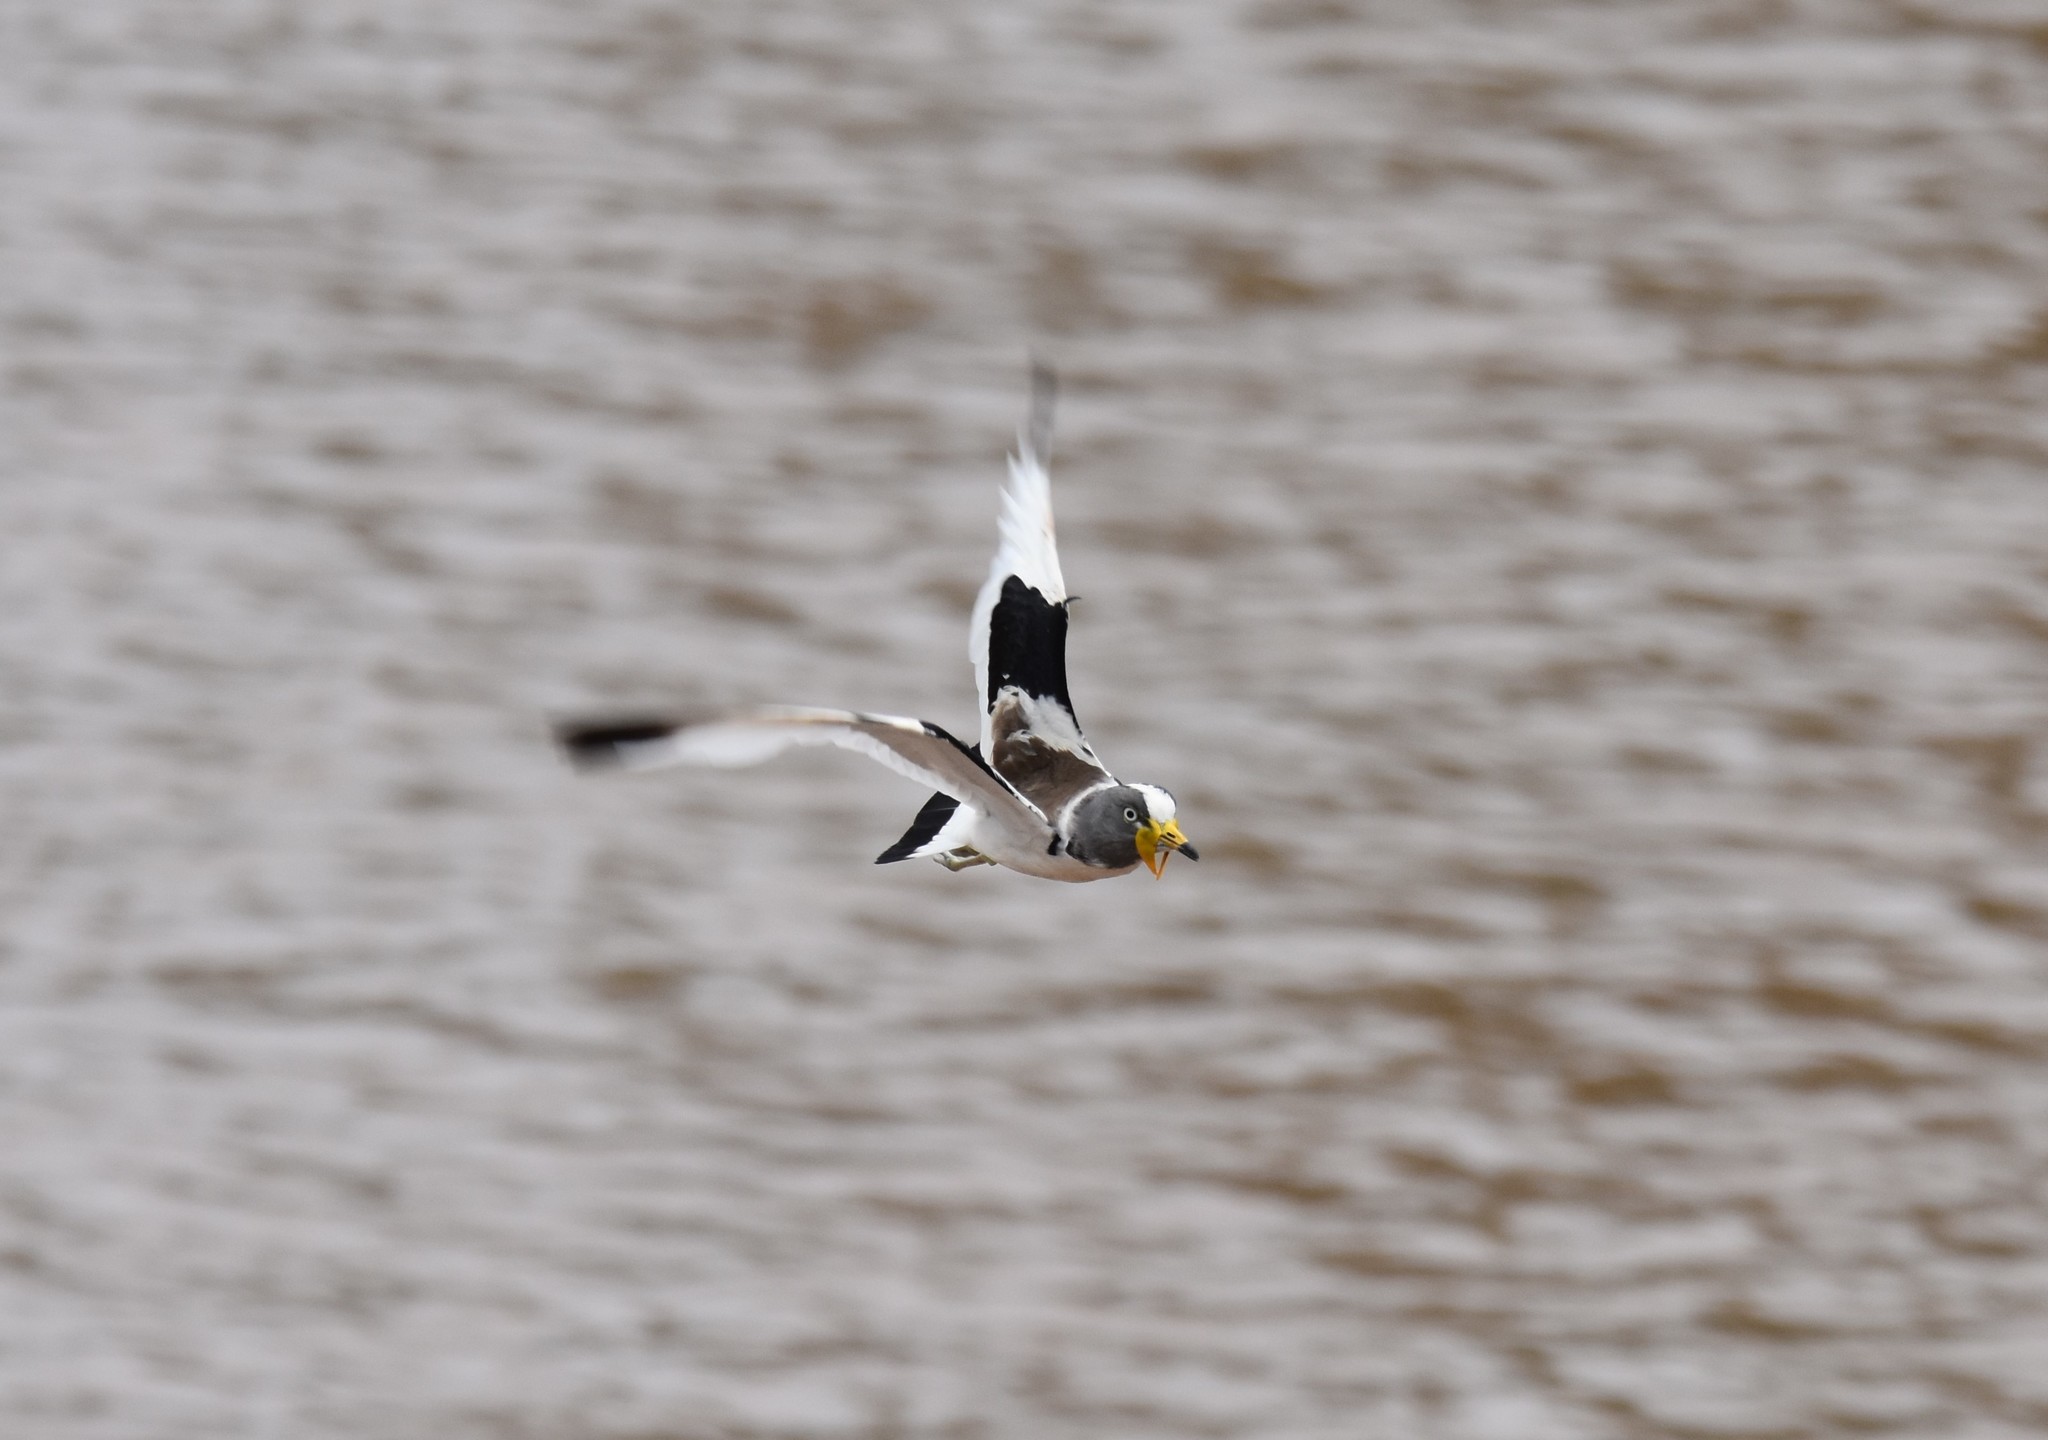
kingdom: Animalia
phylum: Chordata
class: Aves
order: Charadriiformes
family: Charadriidae
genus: Vanellus
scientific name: Vanellus albiceps
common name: White-crowned lapwing
